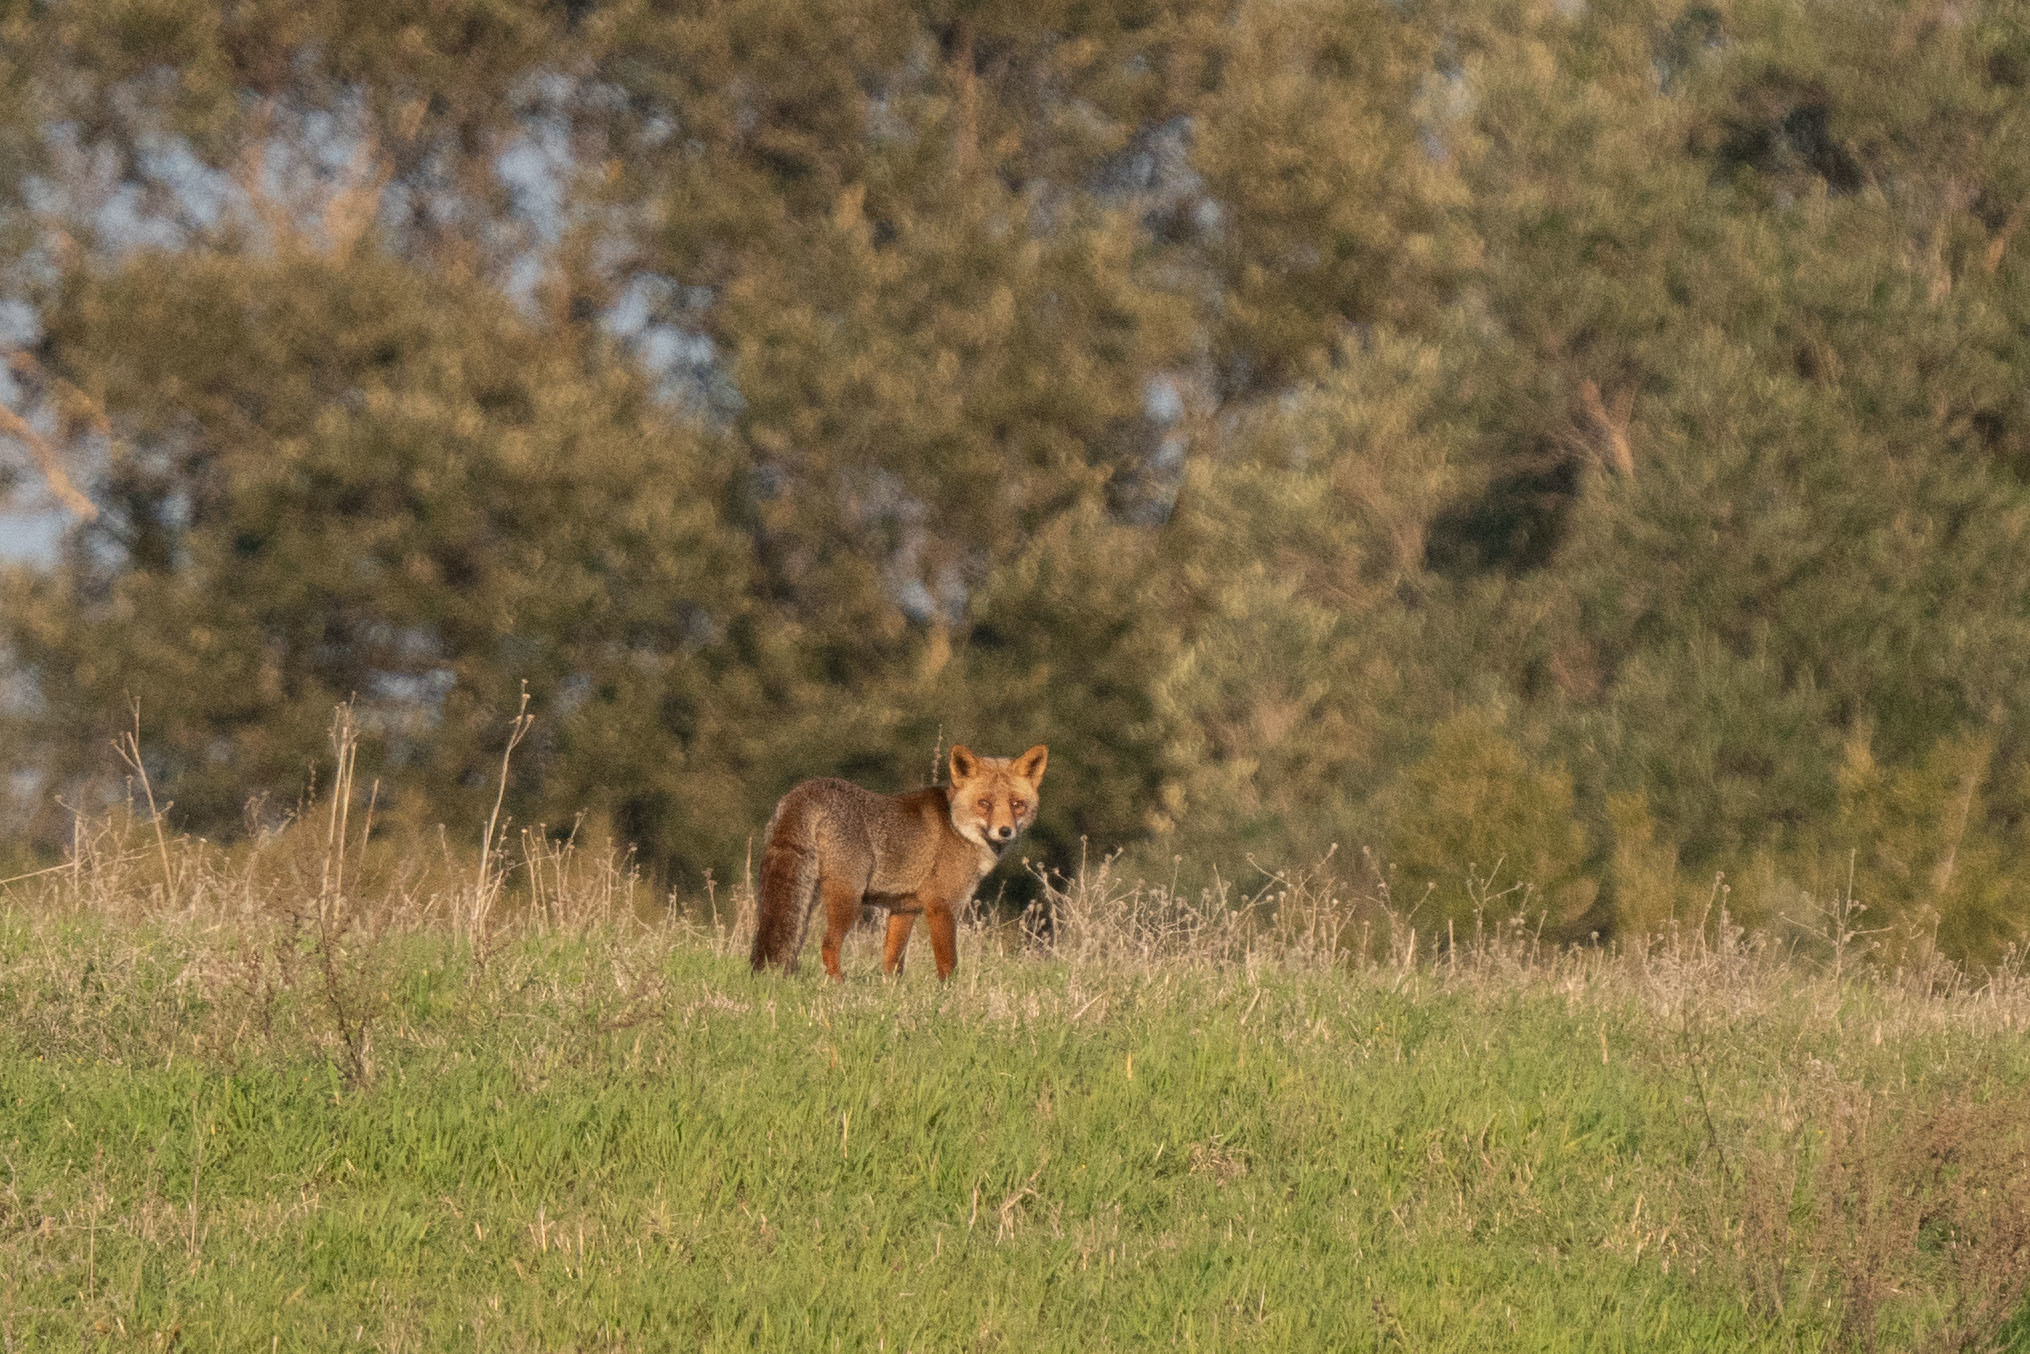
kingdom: Animalia
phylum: Chordata
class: Mammalia
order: Carnivora
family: Canidae
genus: Vulpes
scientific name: Vulpes vulpes
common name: Red fox
